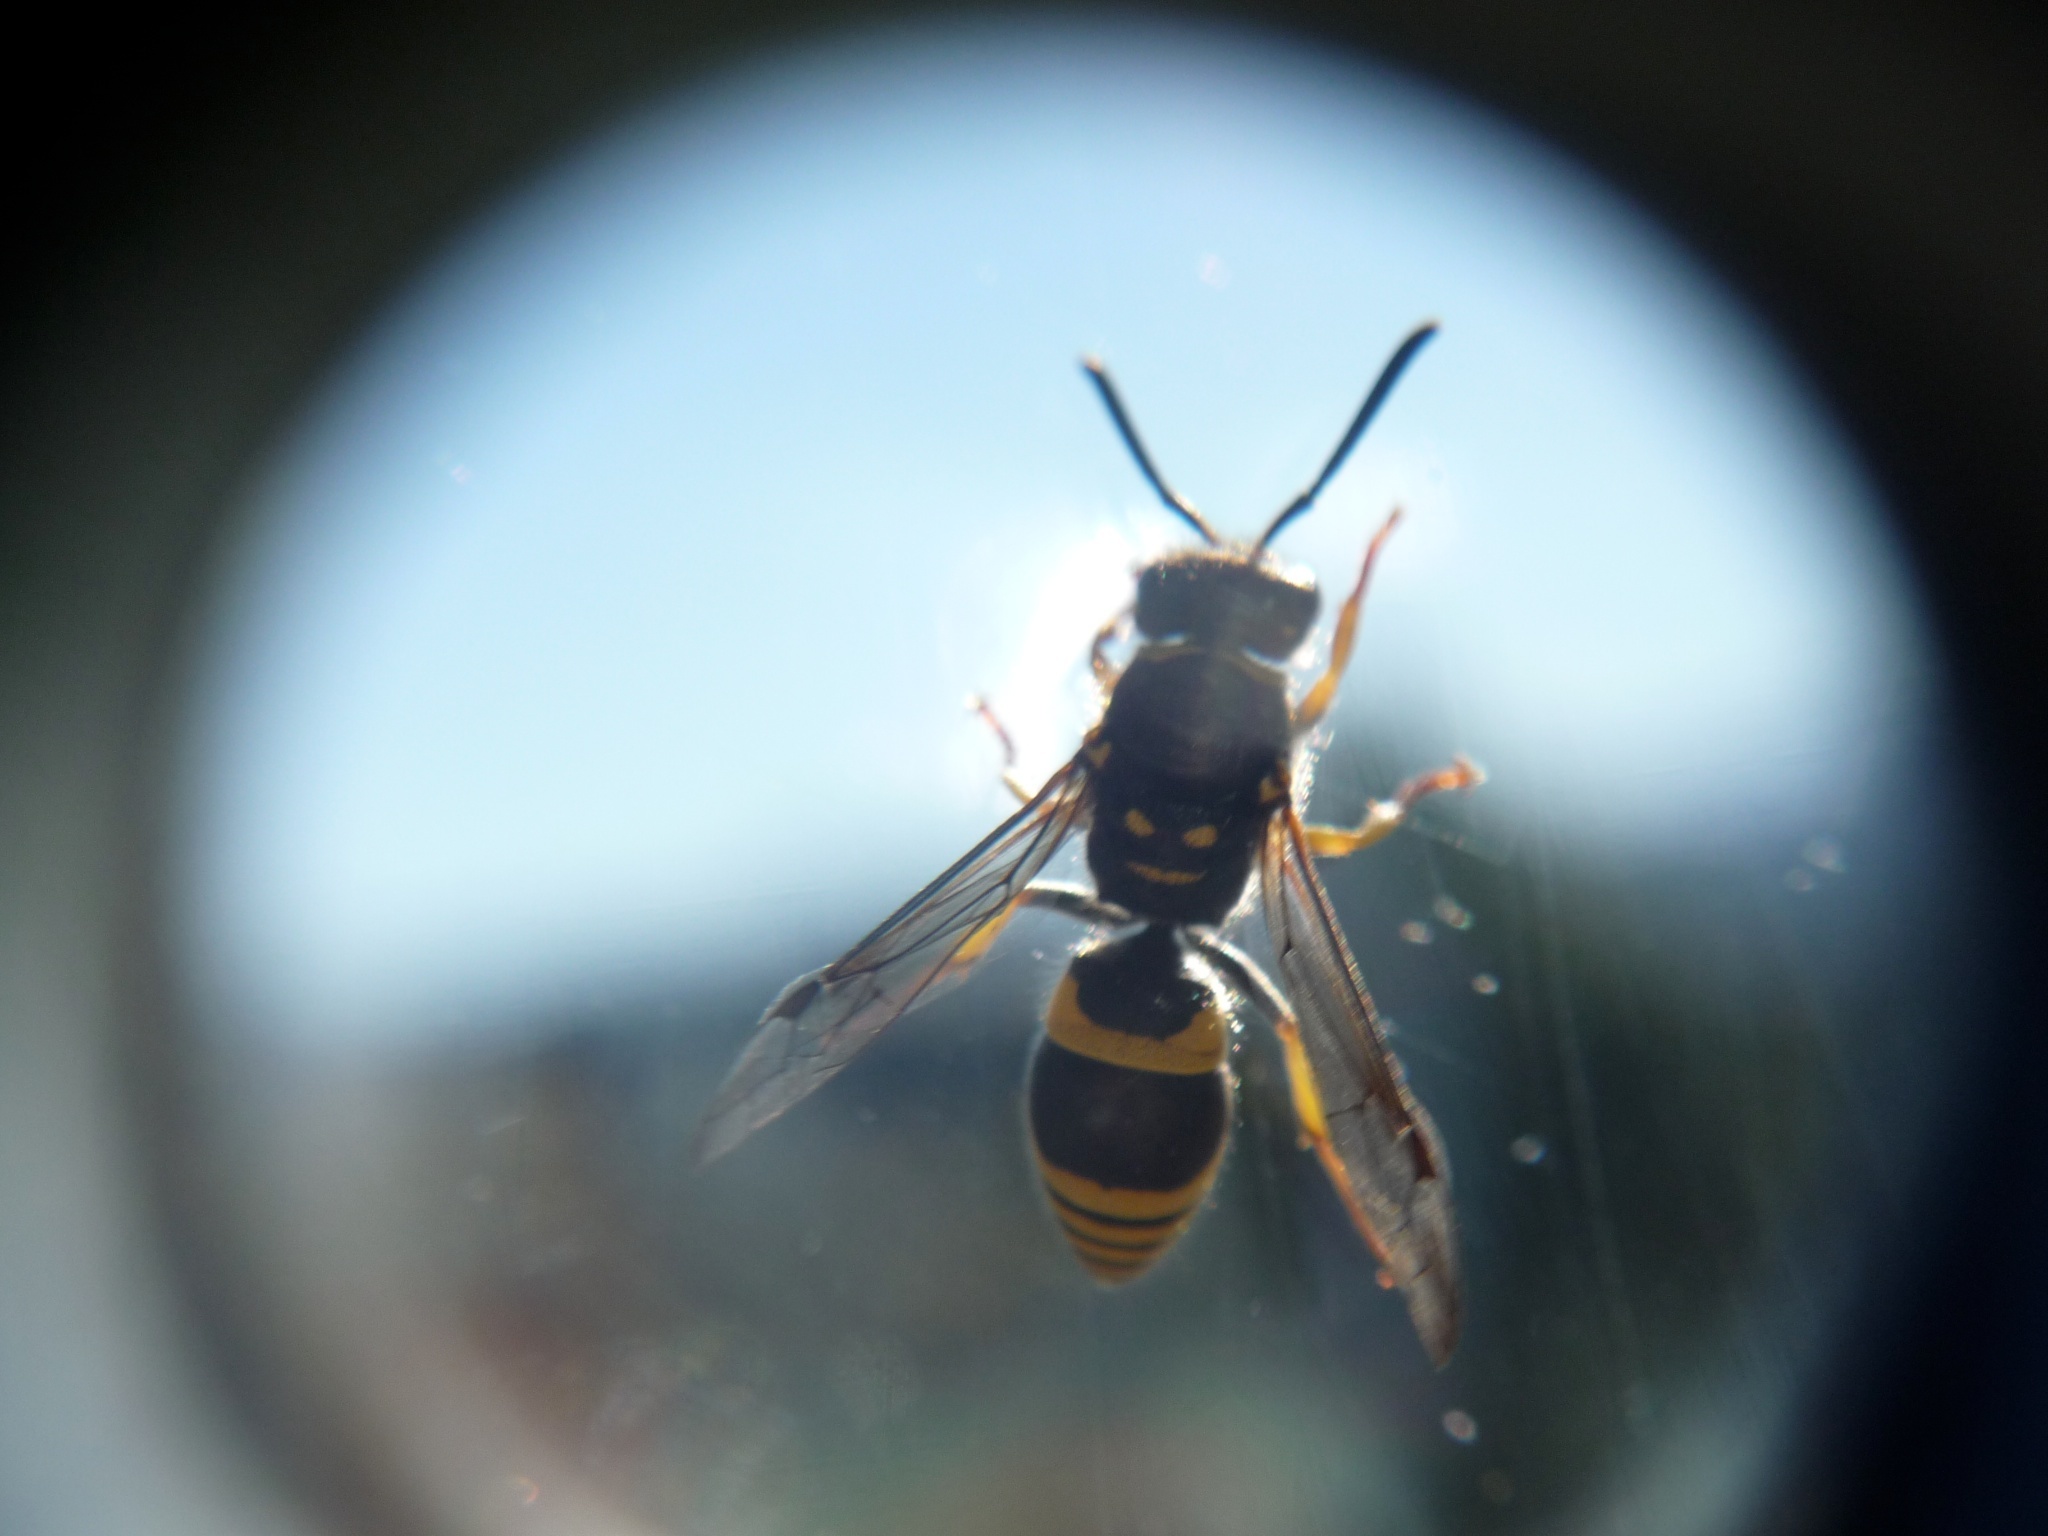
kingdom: Animalia
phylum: Arthropoda
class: Insecta
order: Hymenoptera
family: Vespidae
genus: Ancistrocerus
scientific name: Ancistrocerus gazella
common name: European tube wasp
